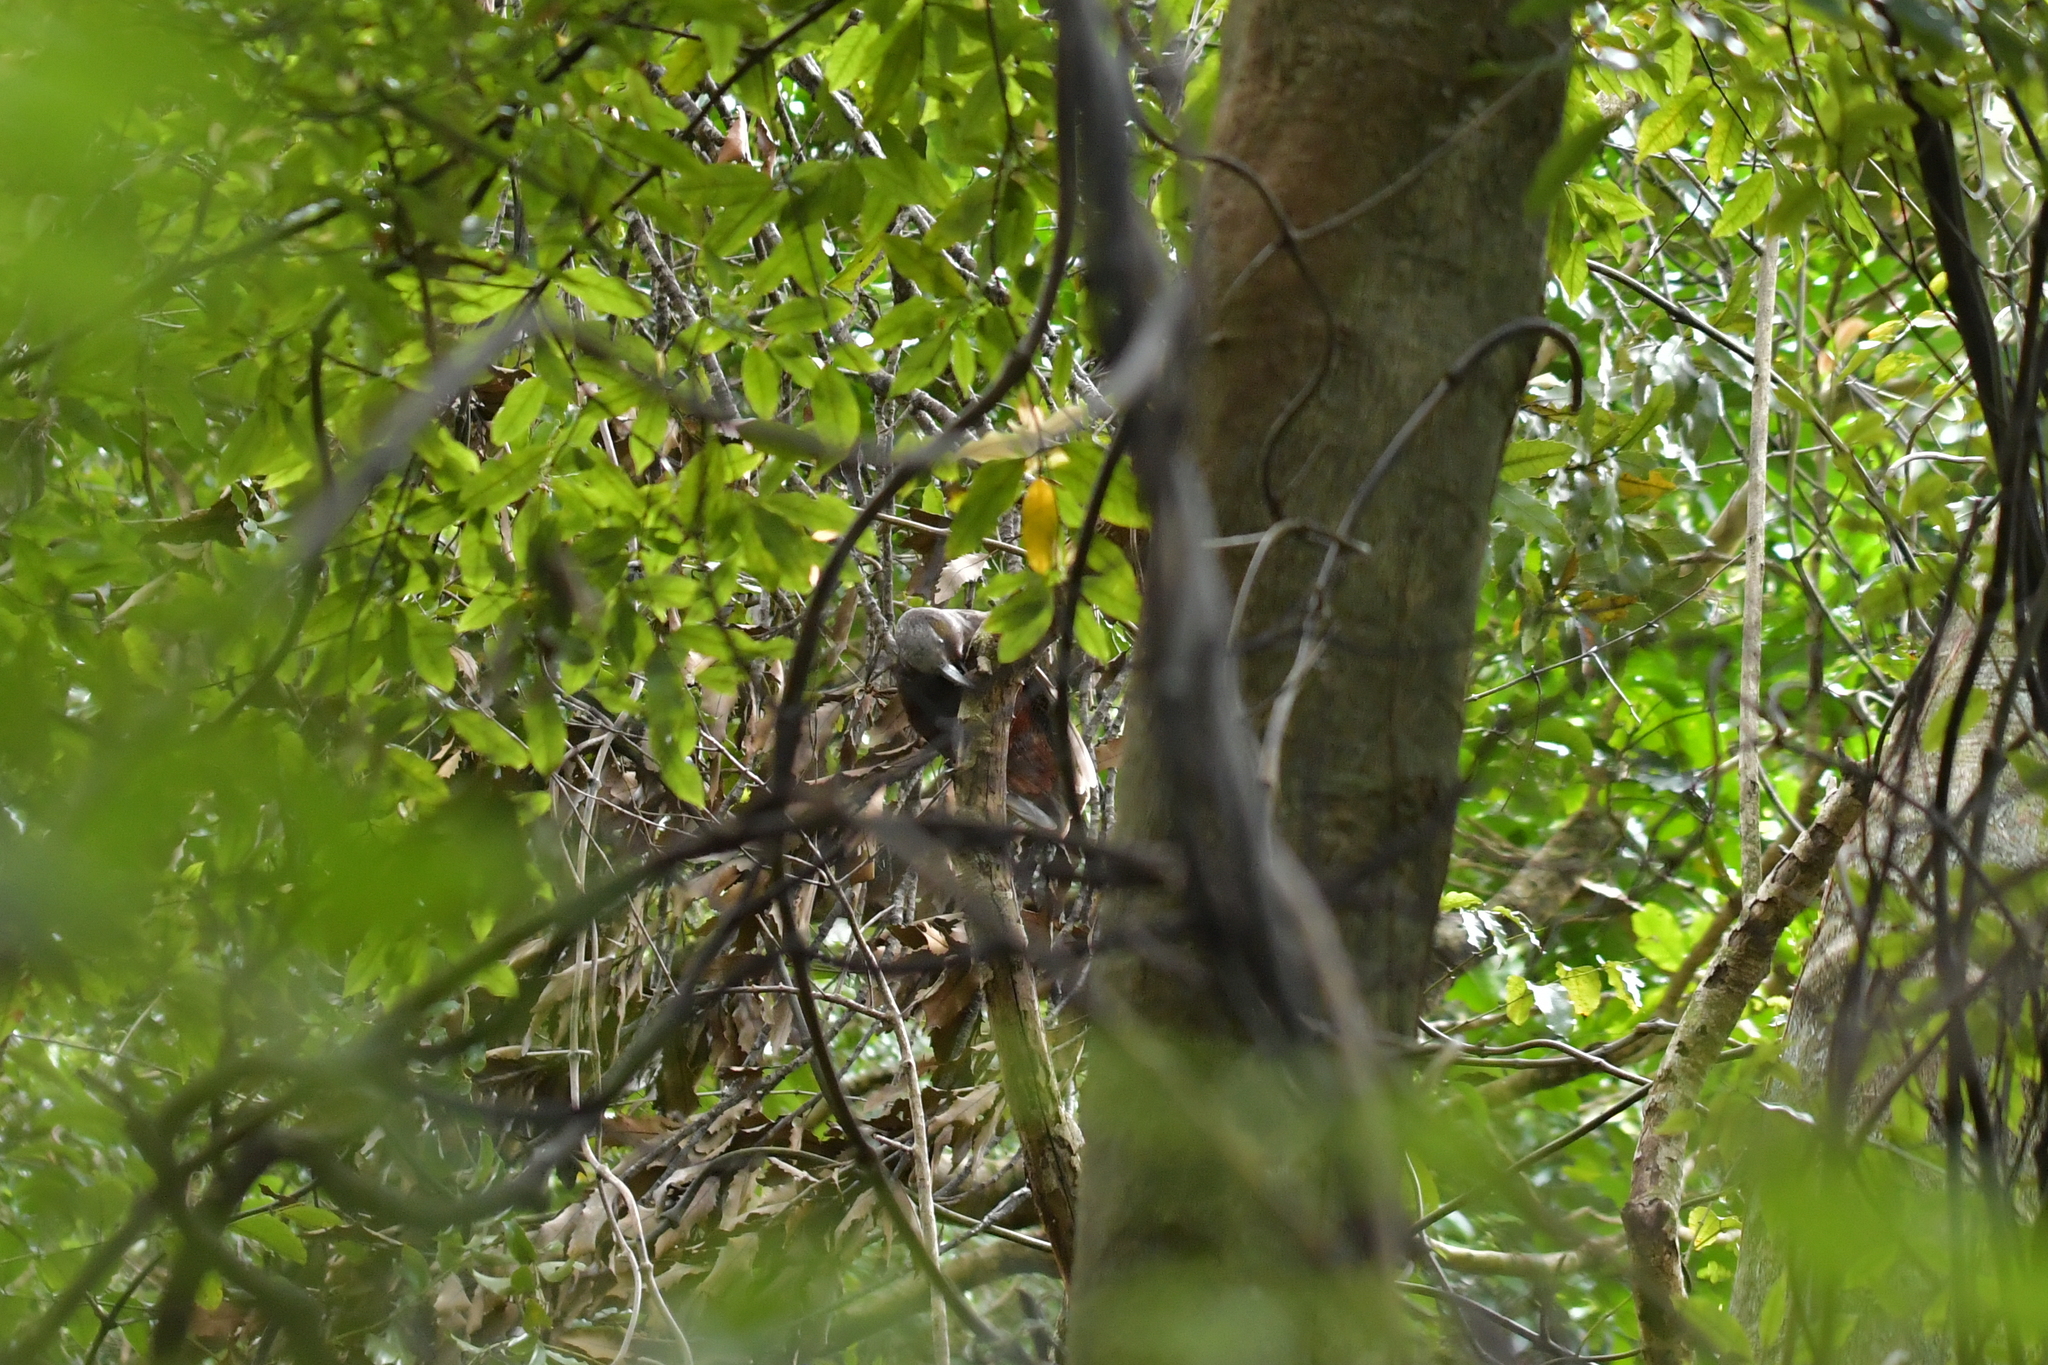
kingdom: Animalia
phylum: Chordata
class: Aves
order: Psittaciformes
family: Psittacidae
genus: Nestor
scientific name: Nestor meridionalis
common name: New zealand kaka
